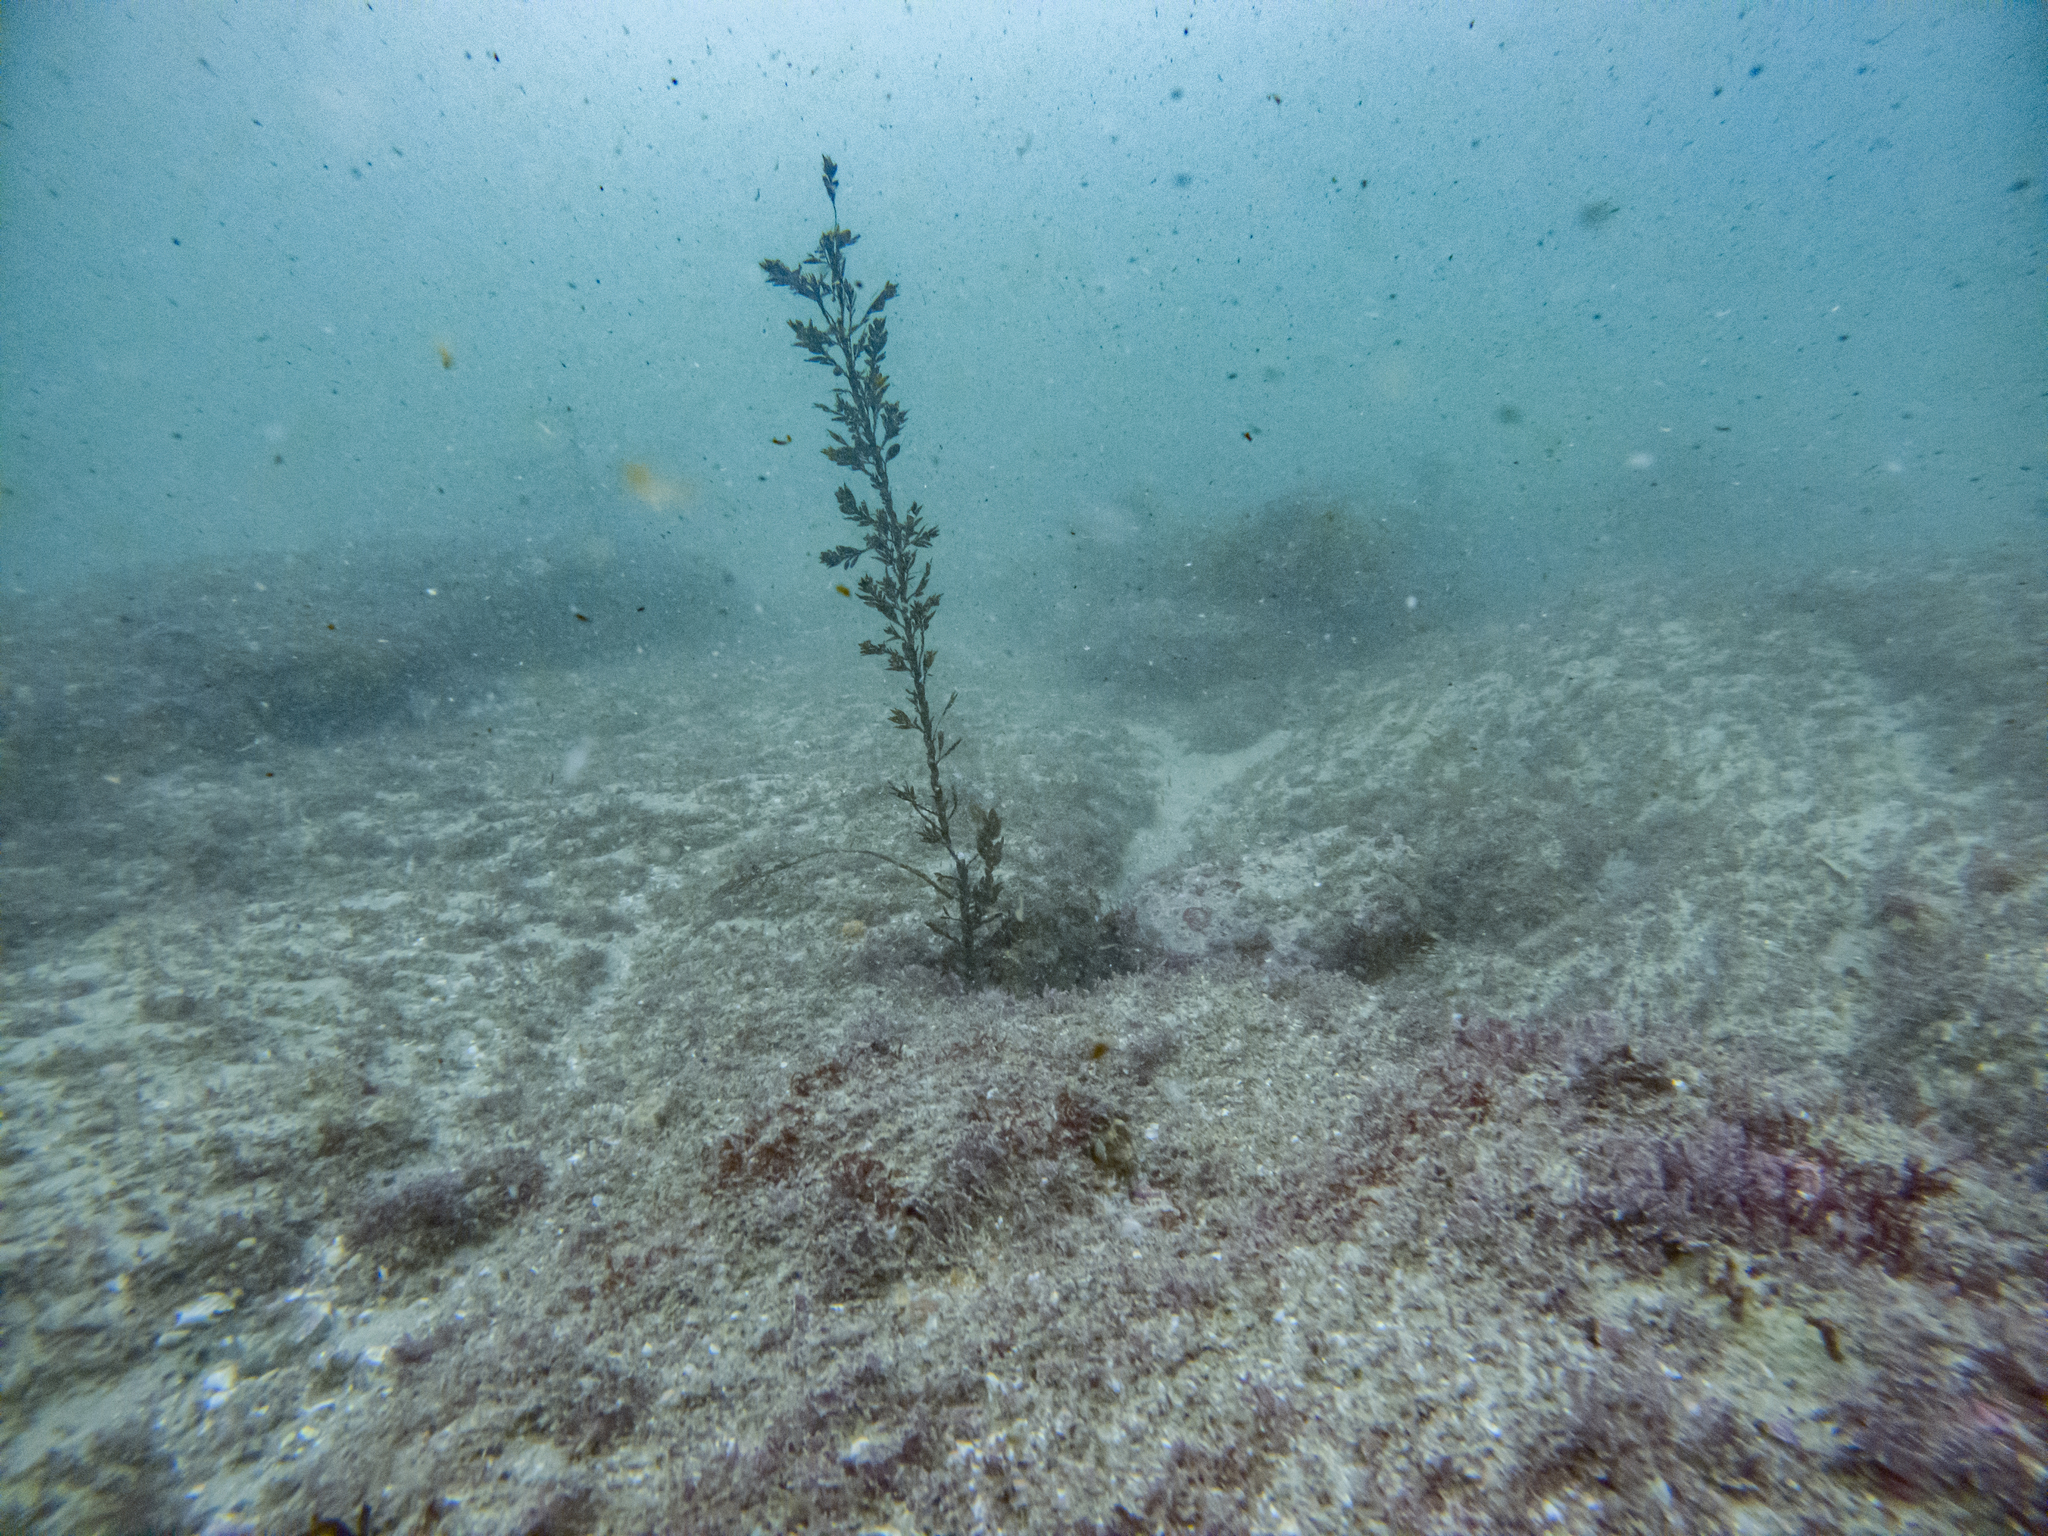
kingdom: Chromista
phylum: Ochrophyta
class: Phaeophyceae
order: Fucales
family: Sargassaceae
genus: Carpophyllum
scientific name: Carpophyllum maschalocarpum
